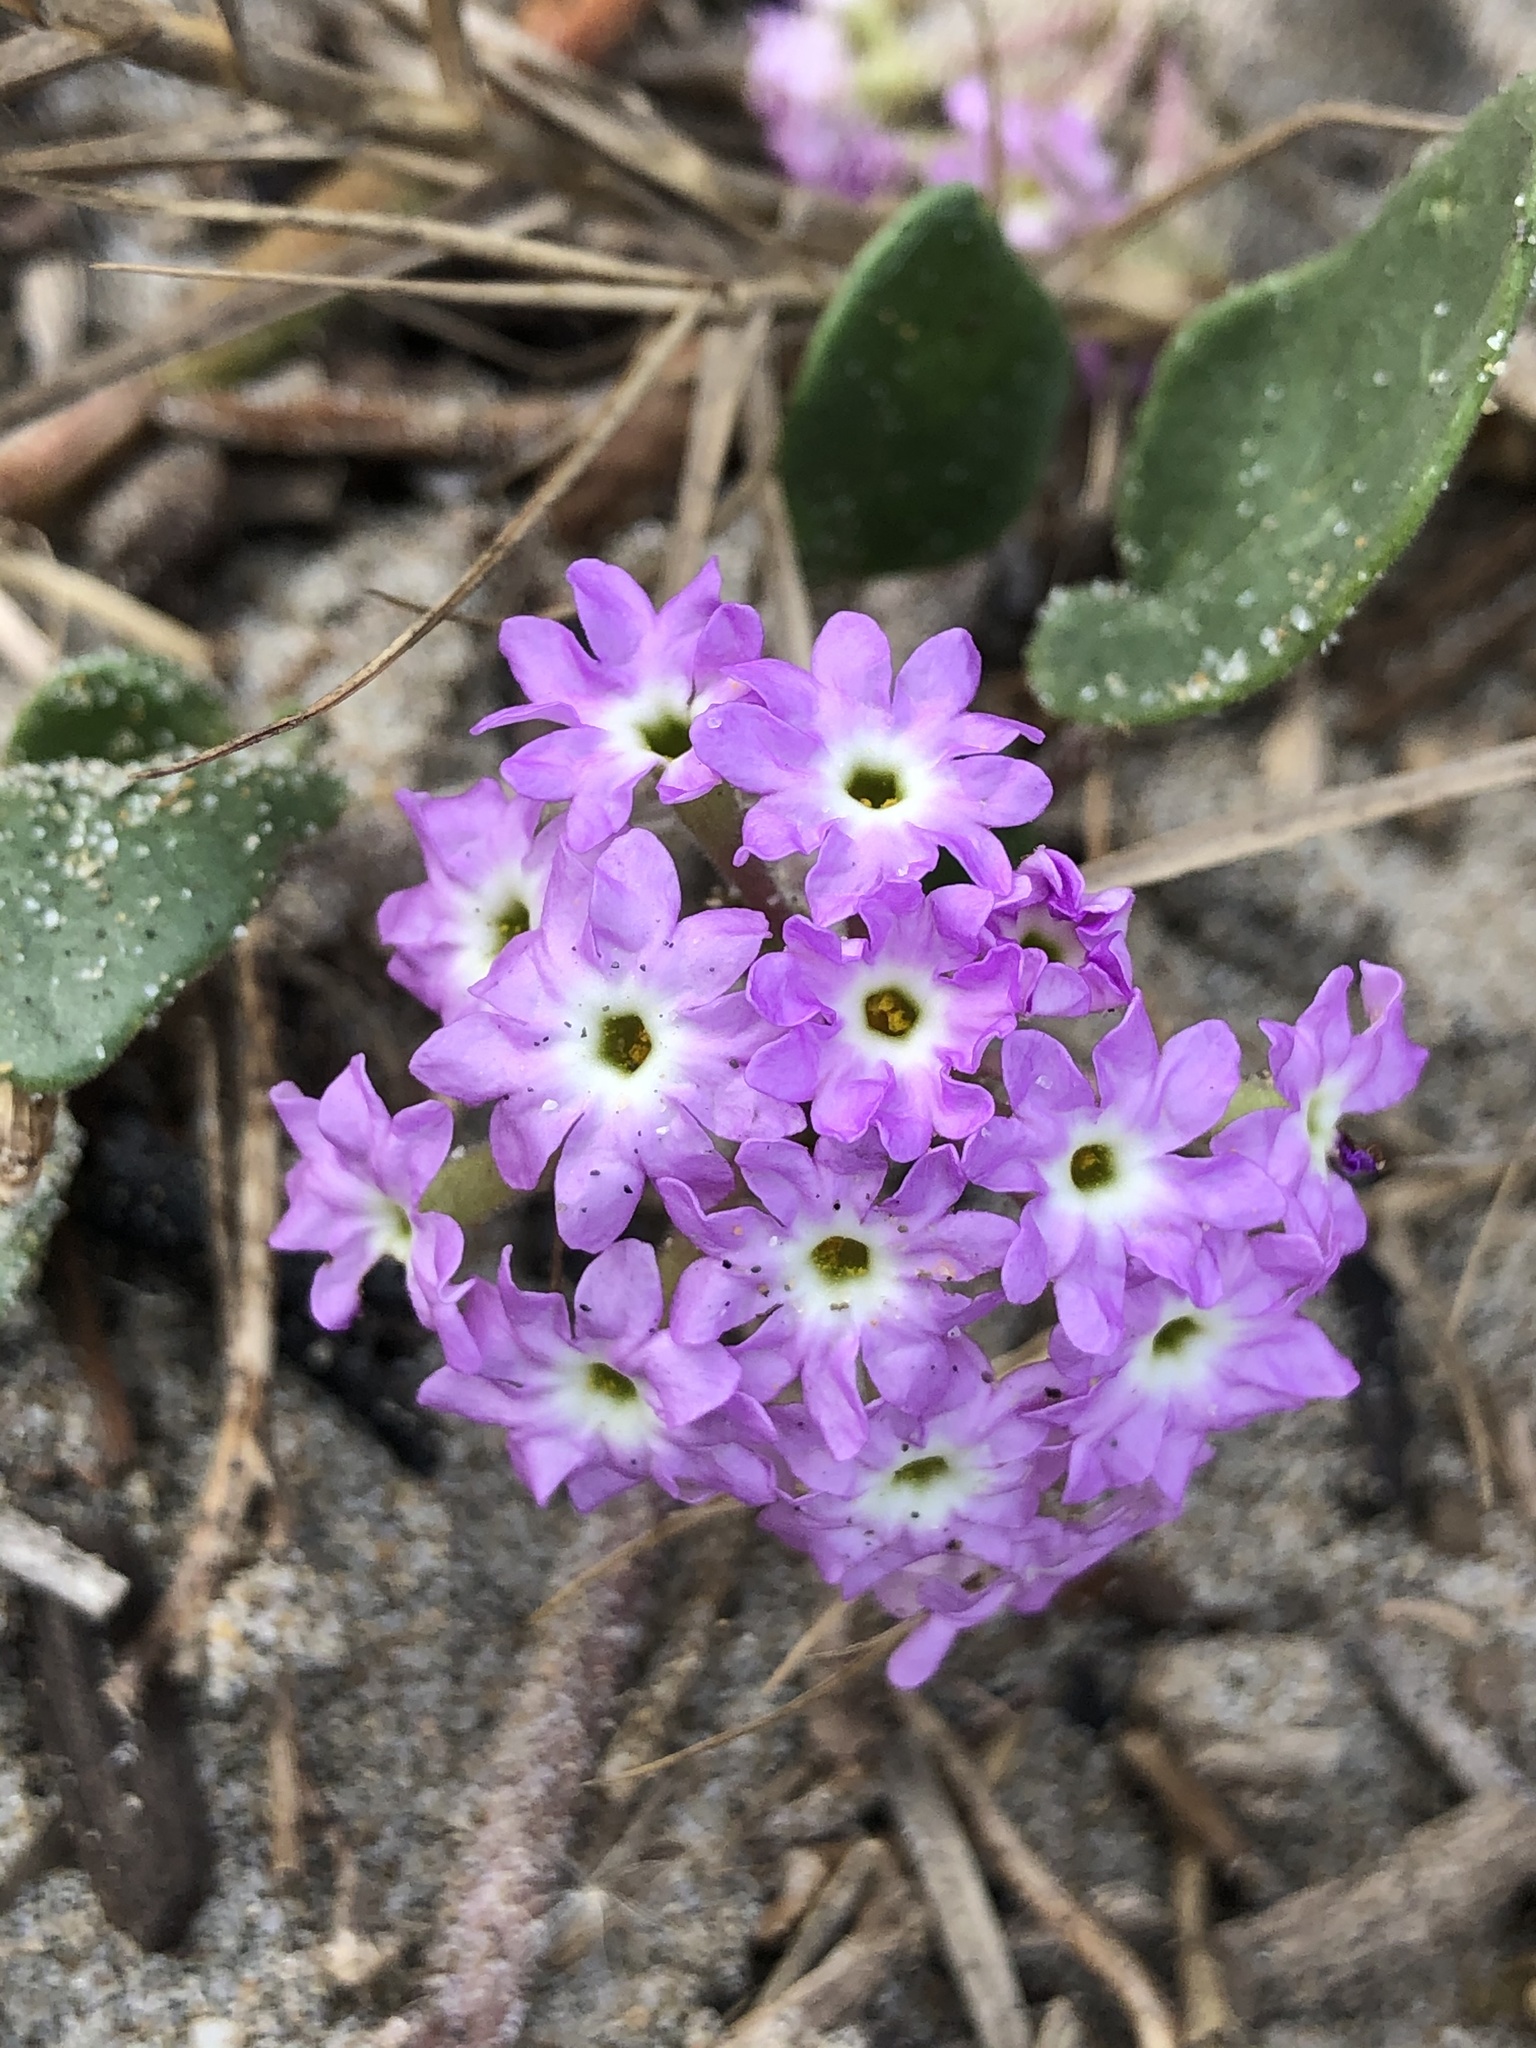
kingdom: Plantae
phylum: Tracheophyta
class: Magnoliopsida
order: Caryophyllales
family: Nyctaginaceae
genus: Abronia
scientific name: Abronia umbellata
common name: Sand-verbena
